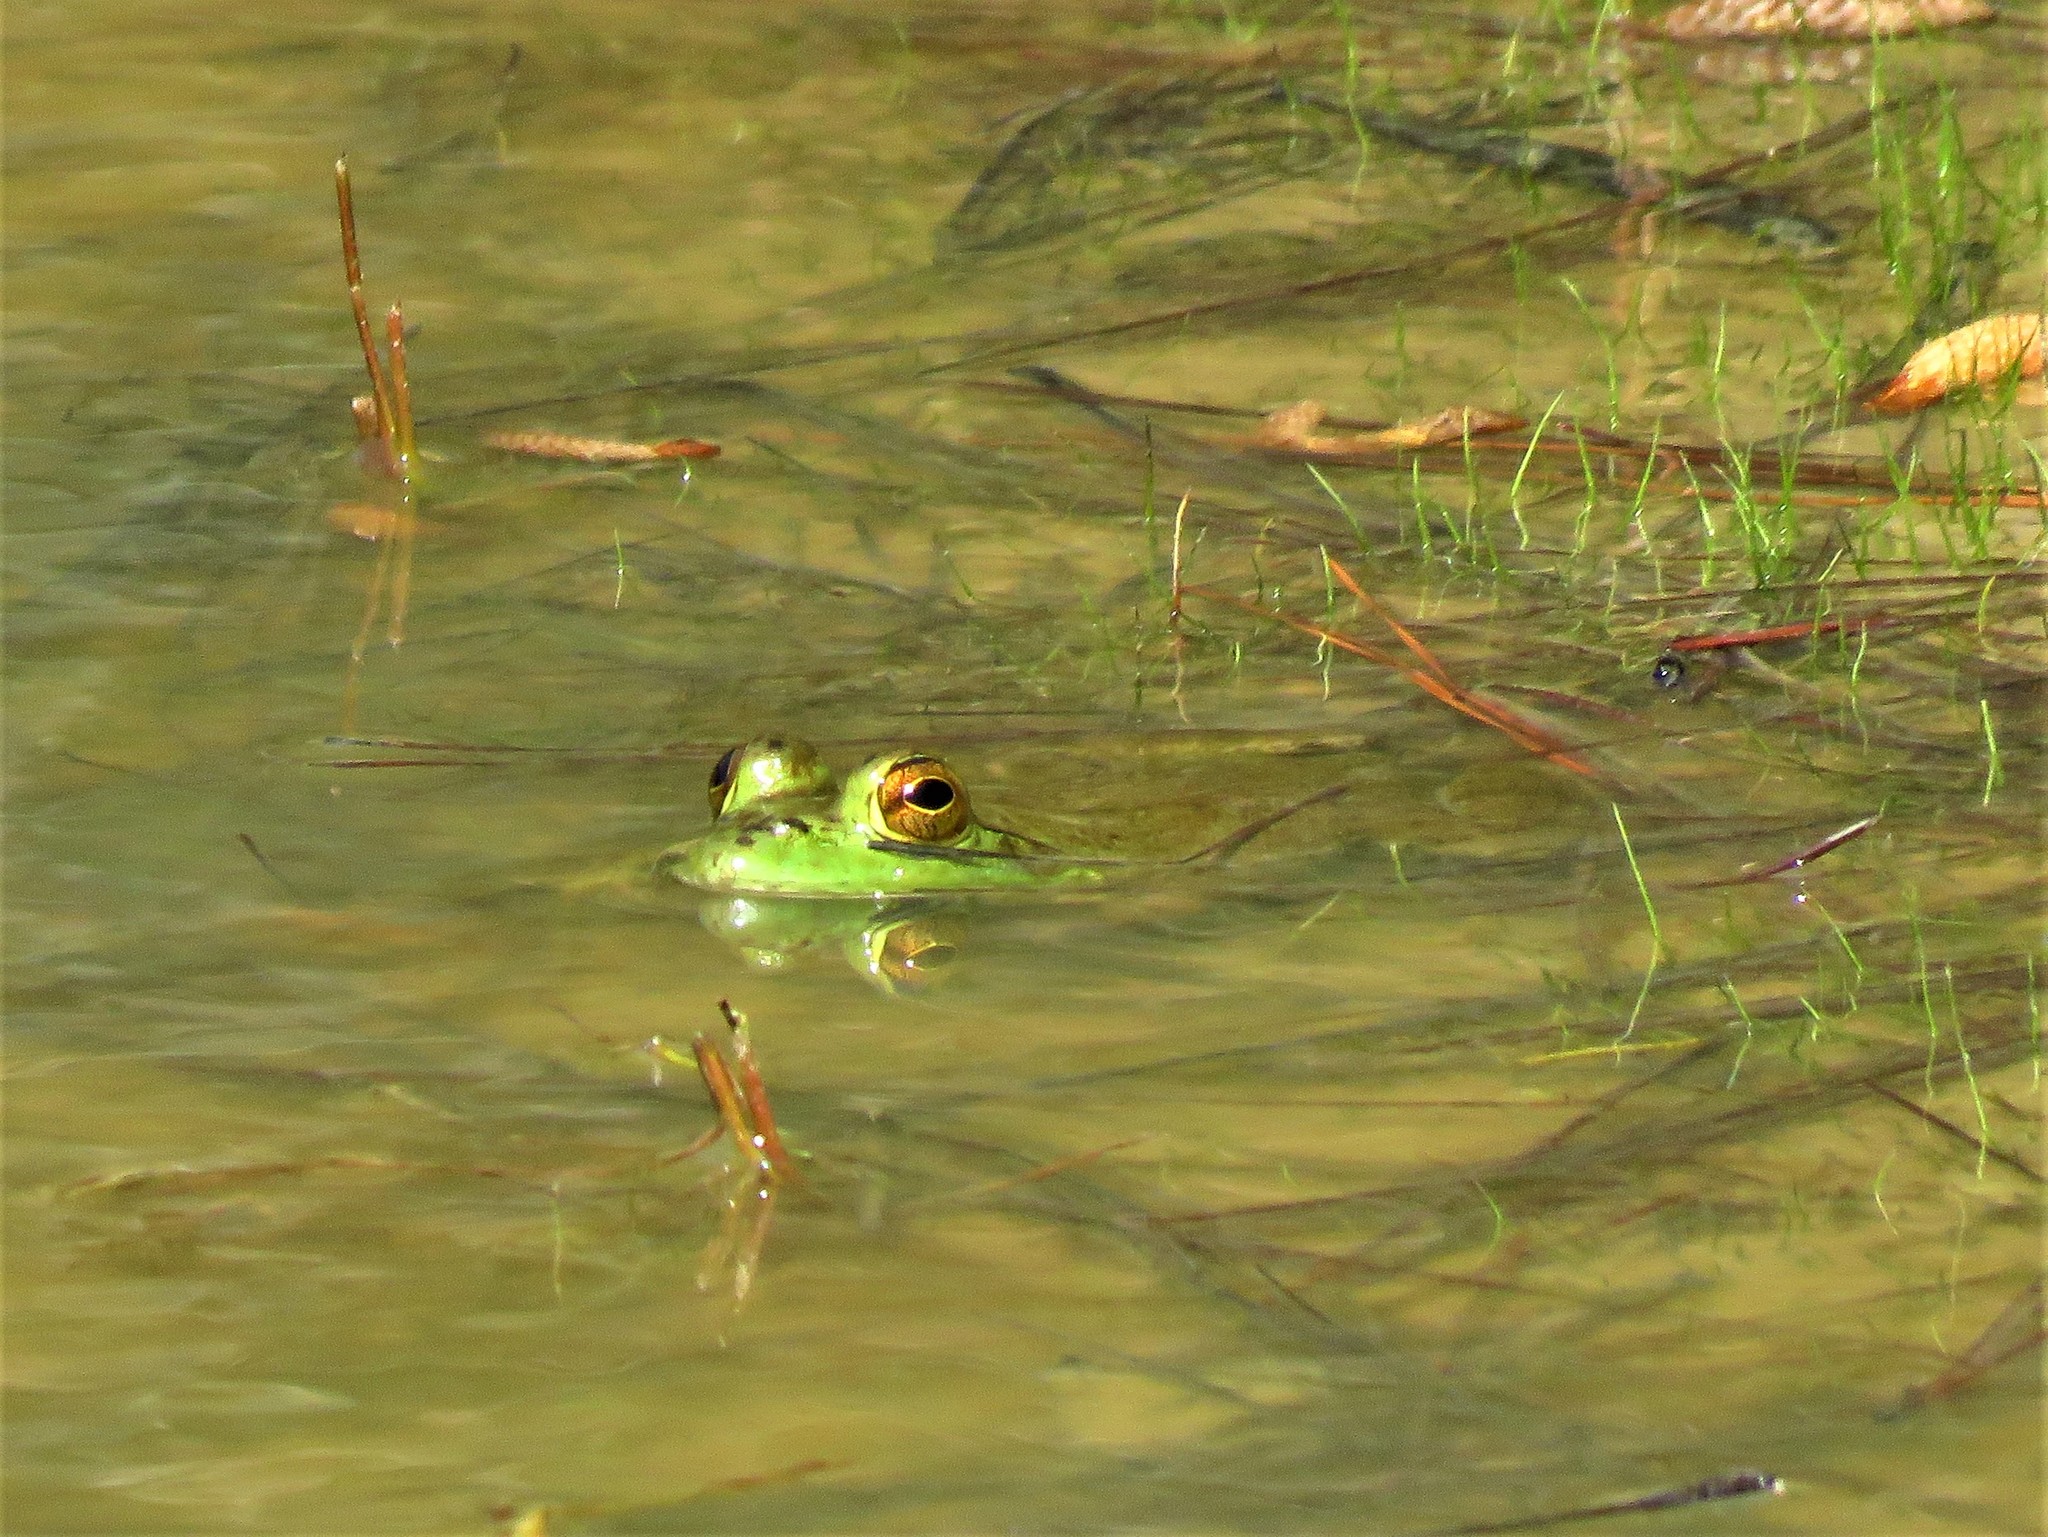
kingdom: Animalia
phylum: Chordata
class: Amphibia
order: Anura
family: Ranidae
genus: Lithobates
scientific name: Lithobates catesbeianus
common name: American bullfrog
